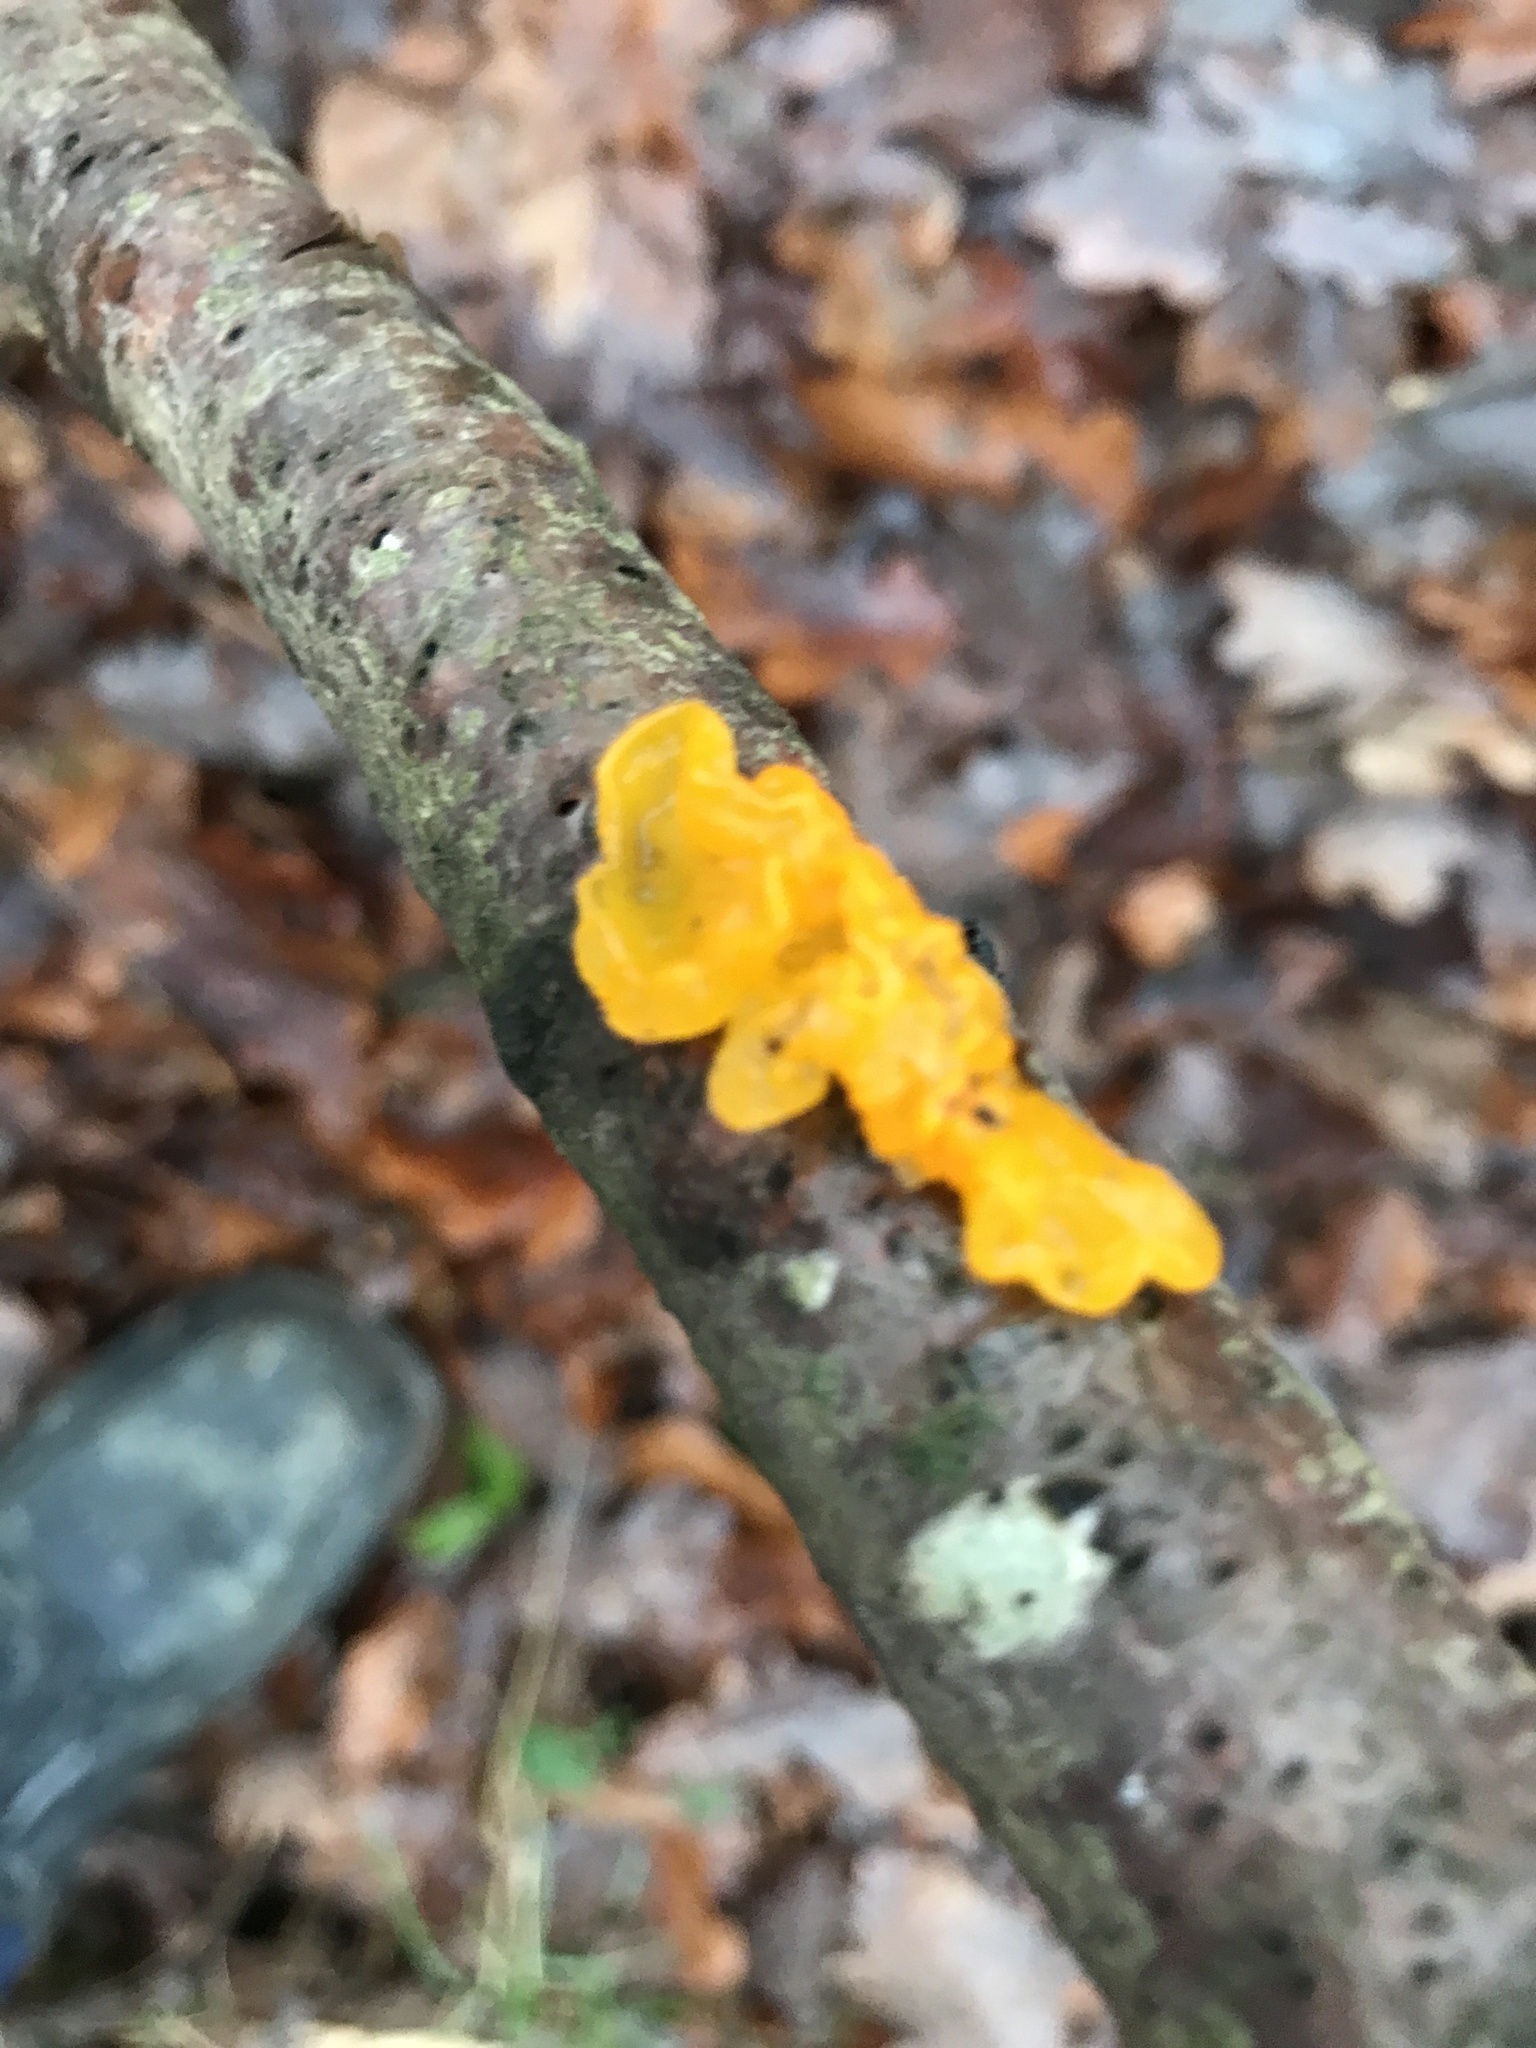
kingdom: Fungi
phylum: Basidiomycota
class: Tremellomycetes
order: Tremellales
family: Tremellaceae
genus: Tremella
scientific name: Tremella mesenterica
